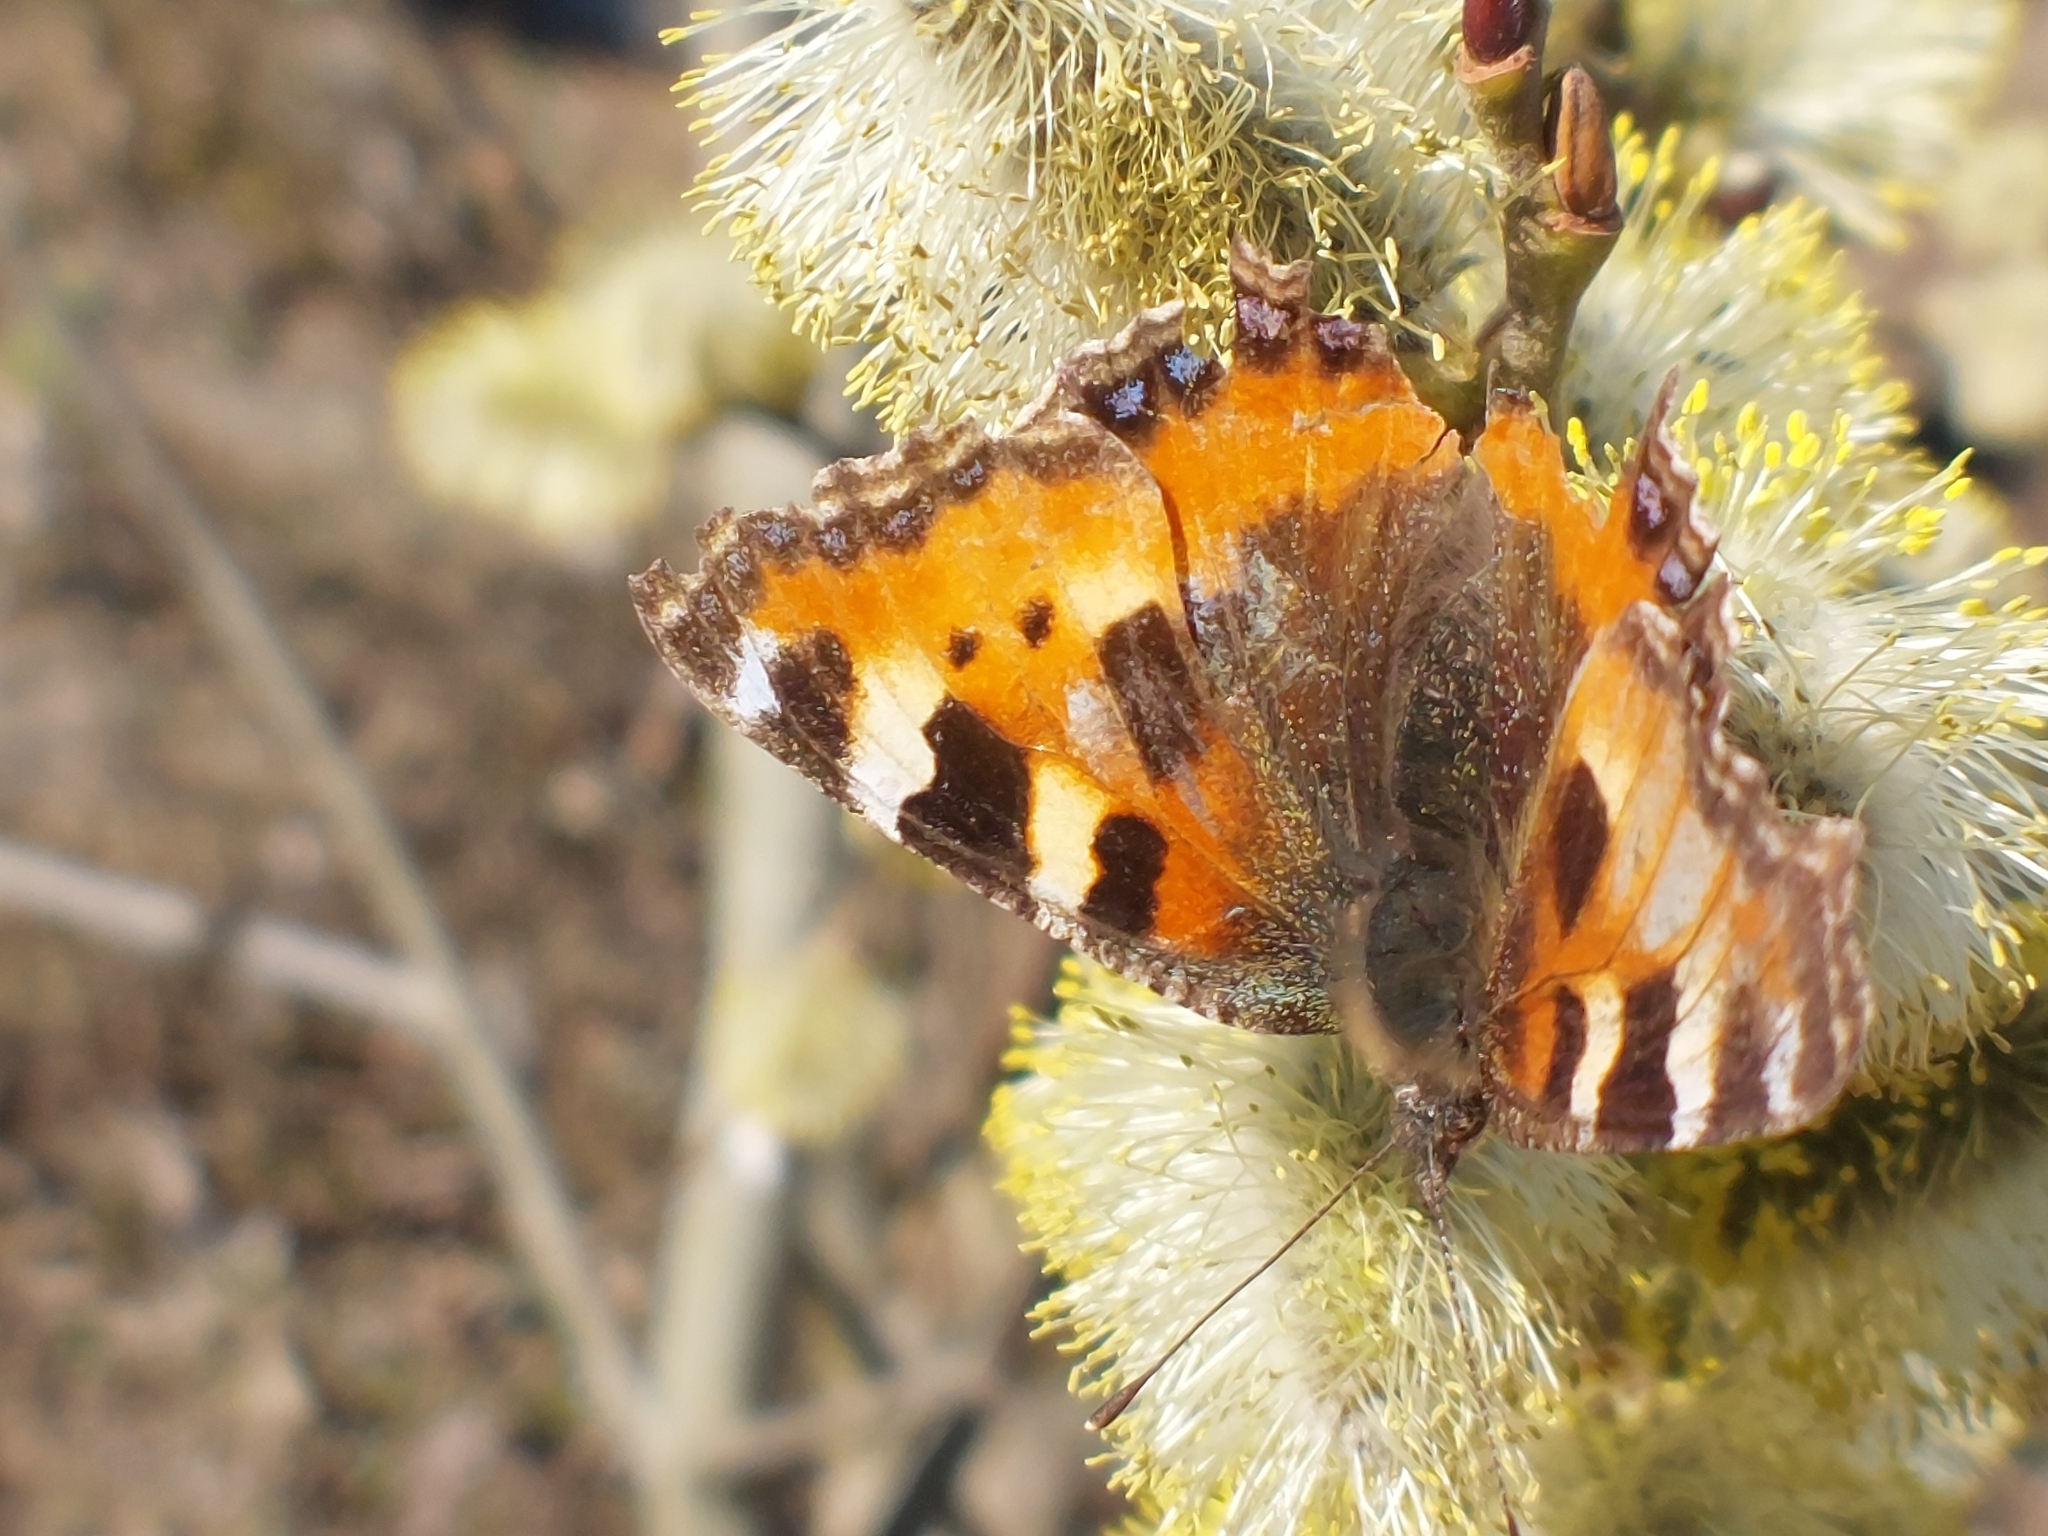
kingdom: Animalia
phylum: Arthropoda
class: Insecta
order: Lepidoptera
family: Nymphalidae
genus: Aglais
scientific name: Aglais urticae
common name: Small tortoiseshell
